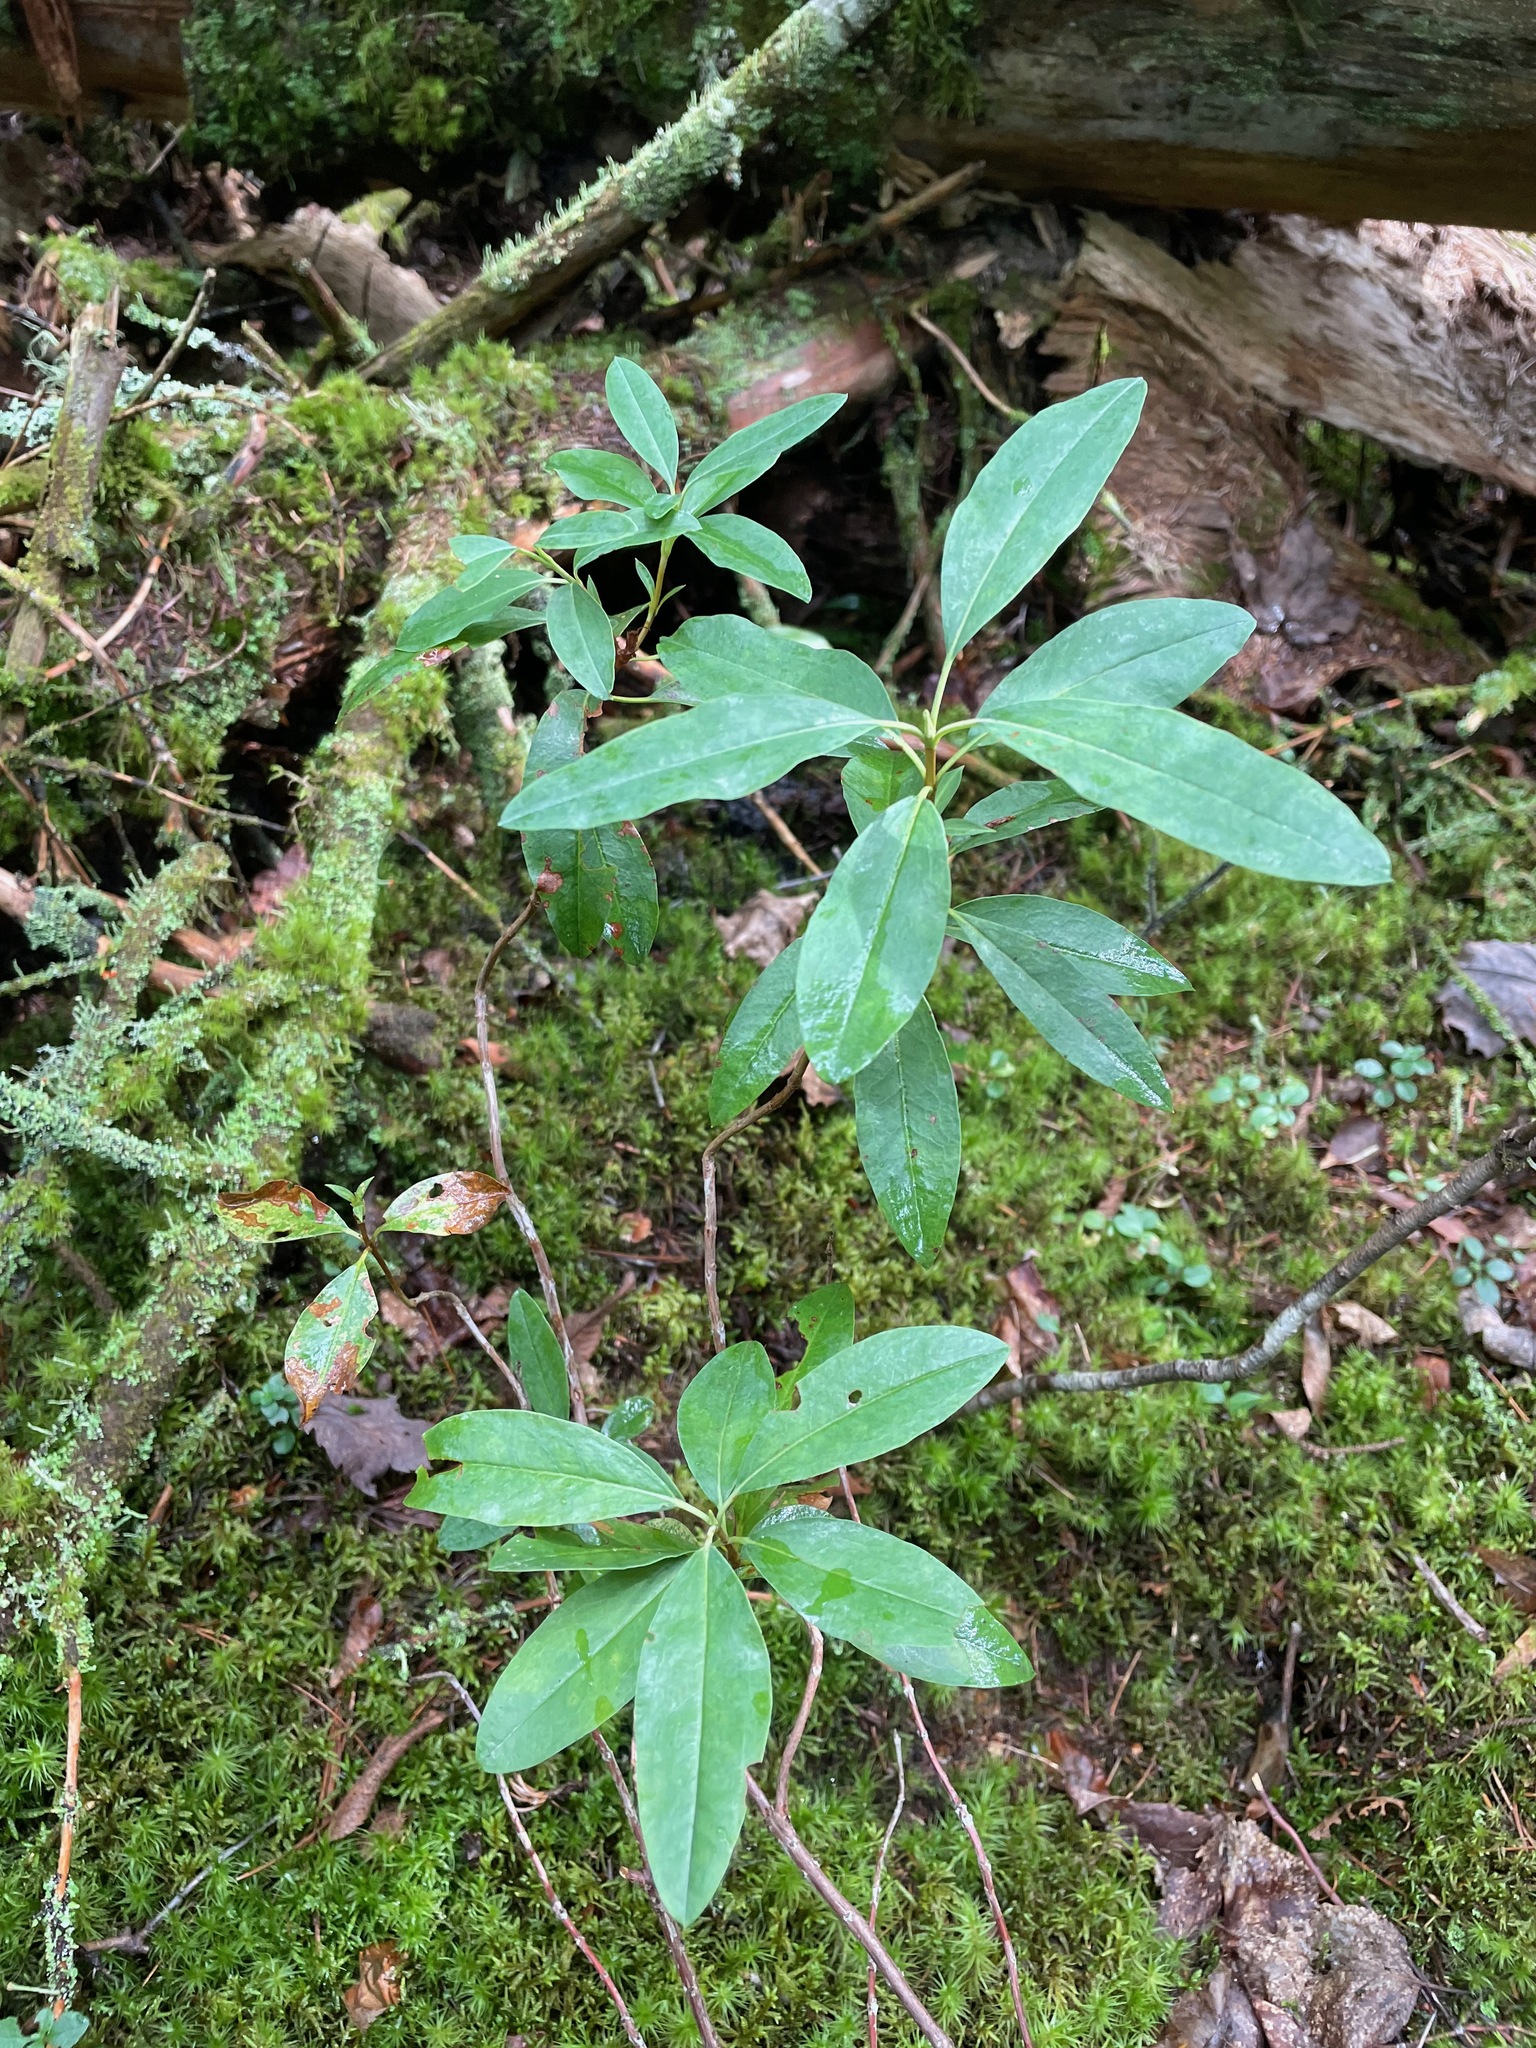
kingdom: Plantae
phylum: Tracheophyta
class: Magnoliopsida
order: Ericales
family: Ericaceae
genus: Kalmia
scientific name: Kalmia angustifolia
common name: Sheep-laurel
